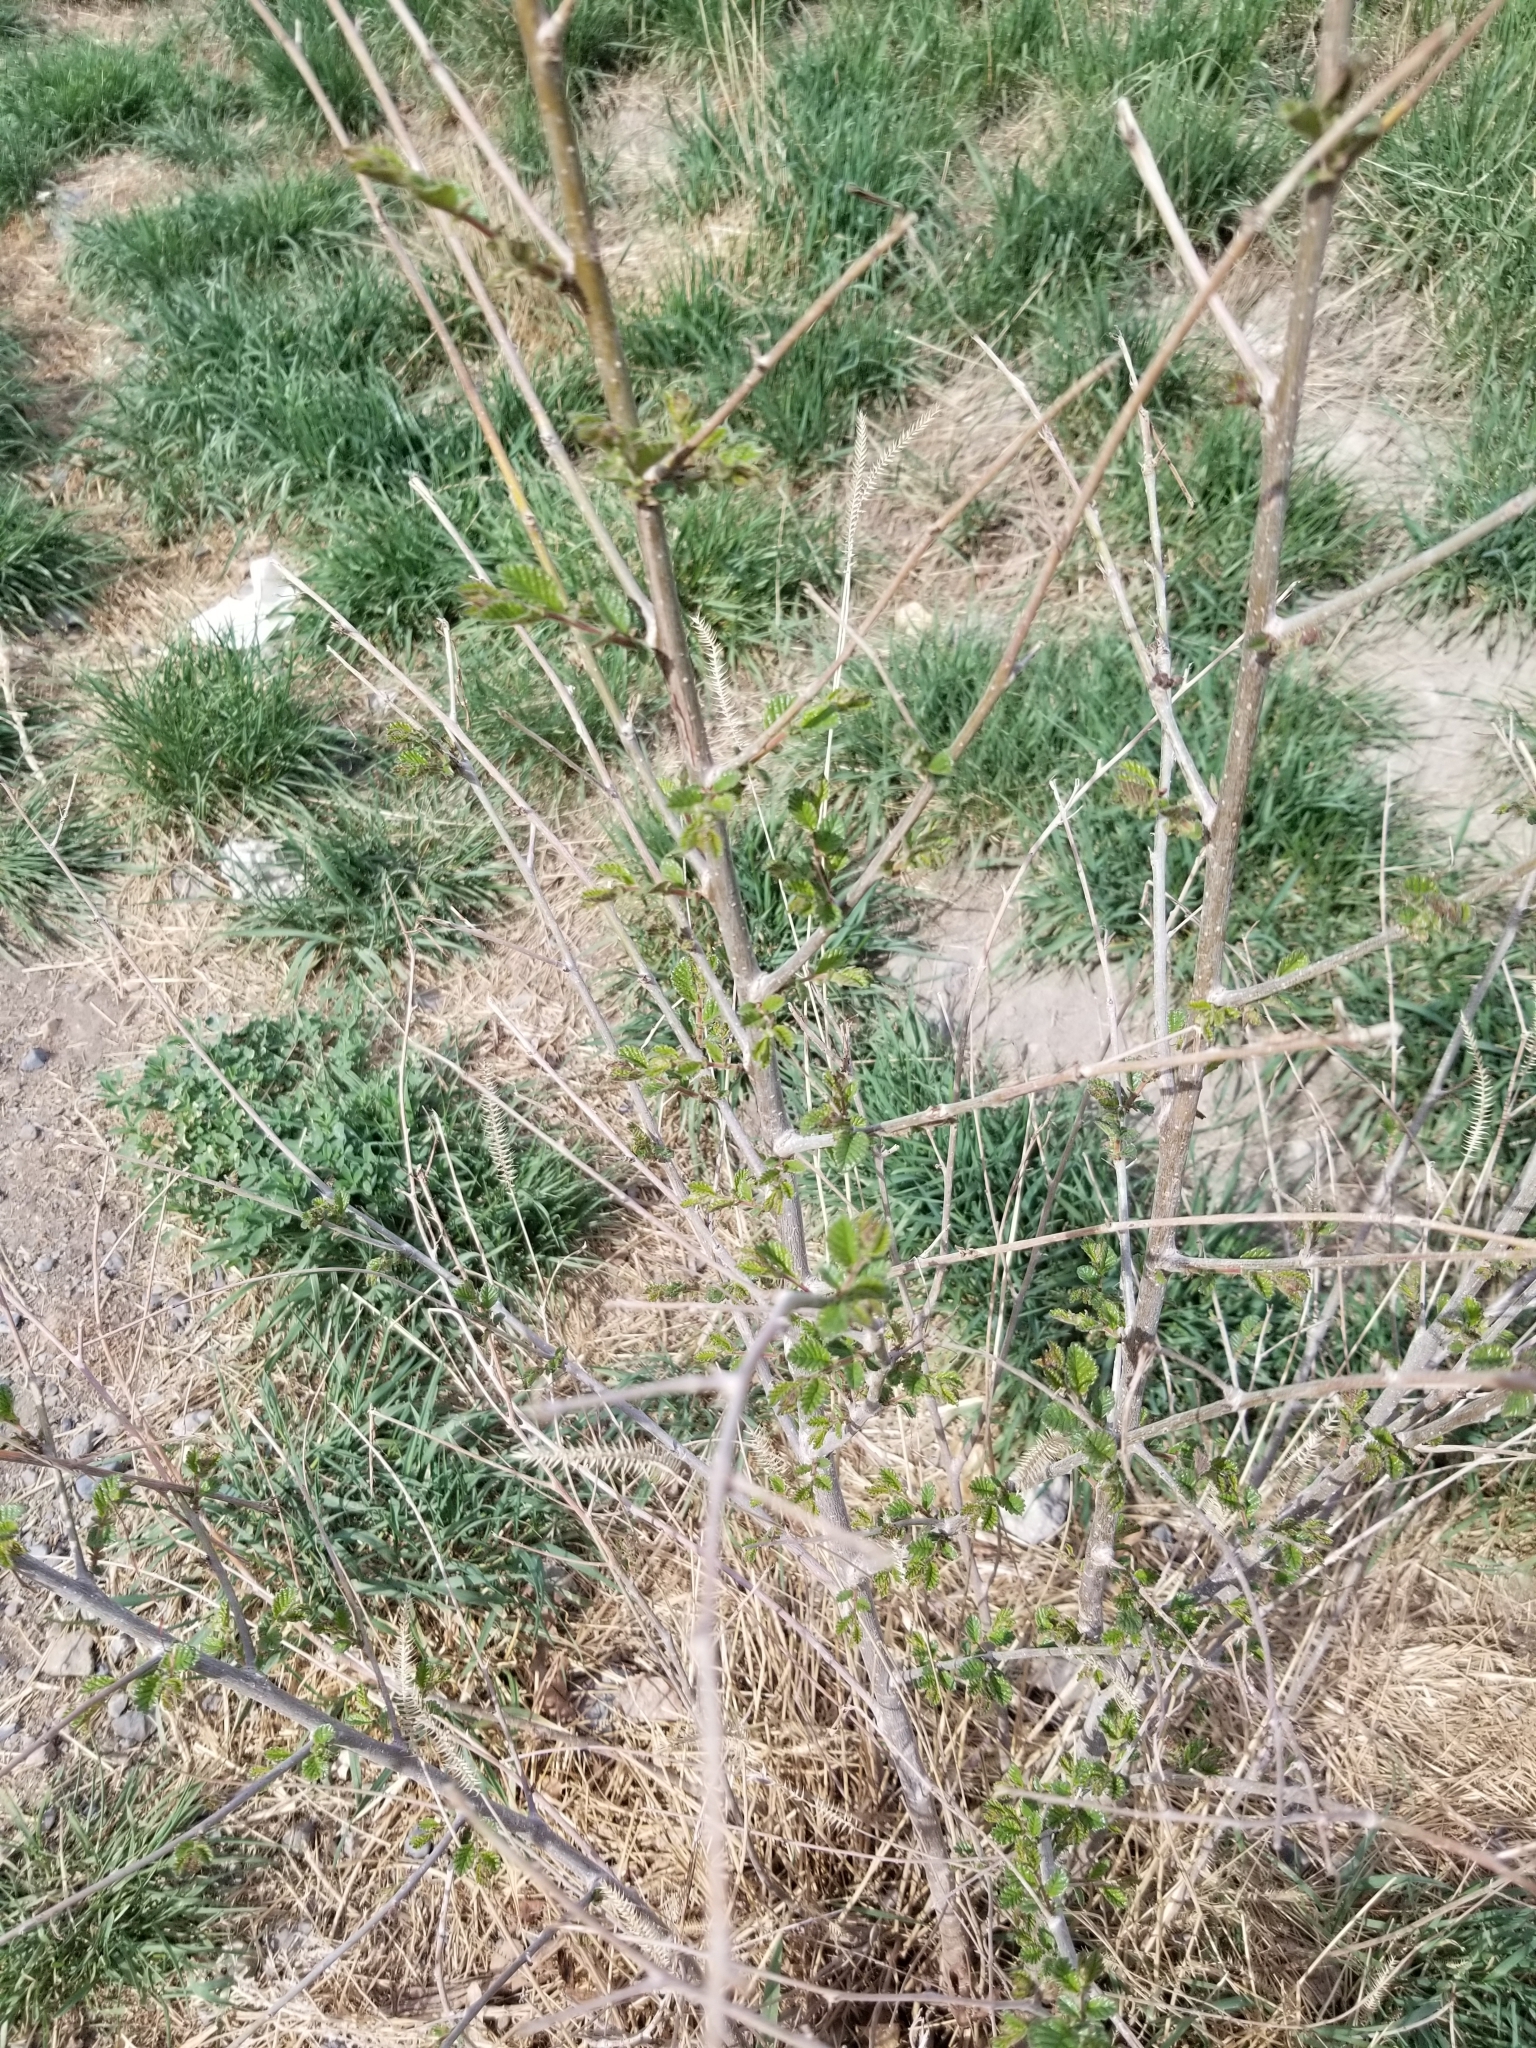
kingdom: Plantae
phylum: Tracheophyta
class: Magnoliopsida
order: Rosales
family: Ulmaceae
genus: Ulmus
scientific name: Ulmus pumila
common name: Siberian elm
